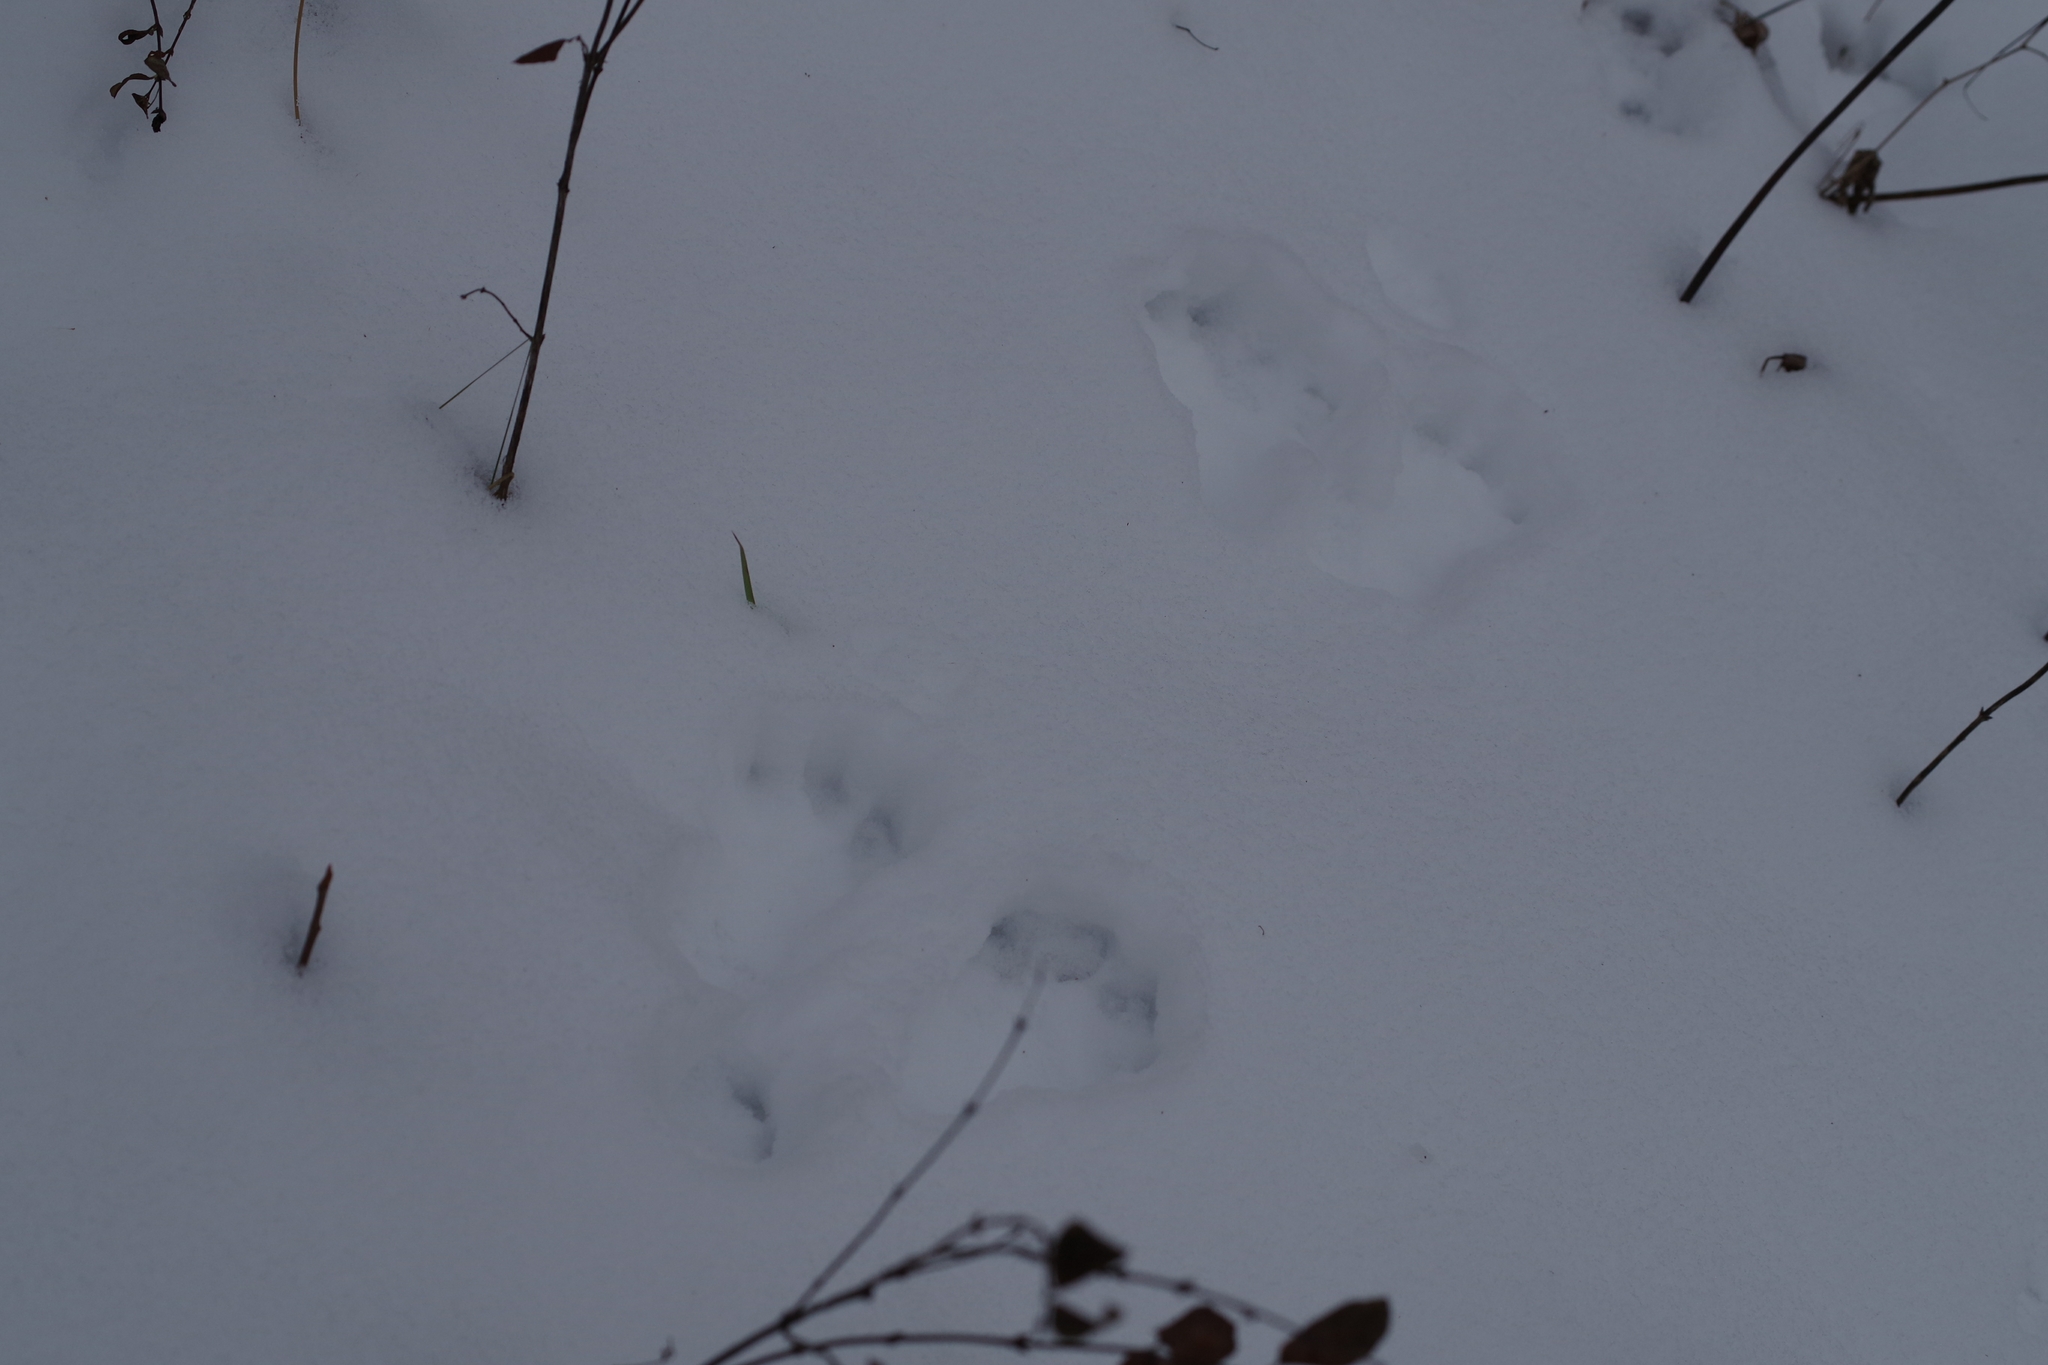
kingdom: Animalia
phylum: Chordata
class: Mammalia
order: Lagomorpha
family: Leporidae
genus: Lepus
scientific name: Lepus americanus
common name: Snowshoe hare
